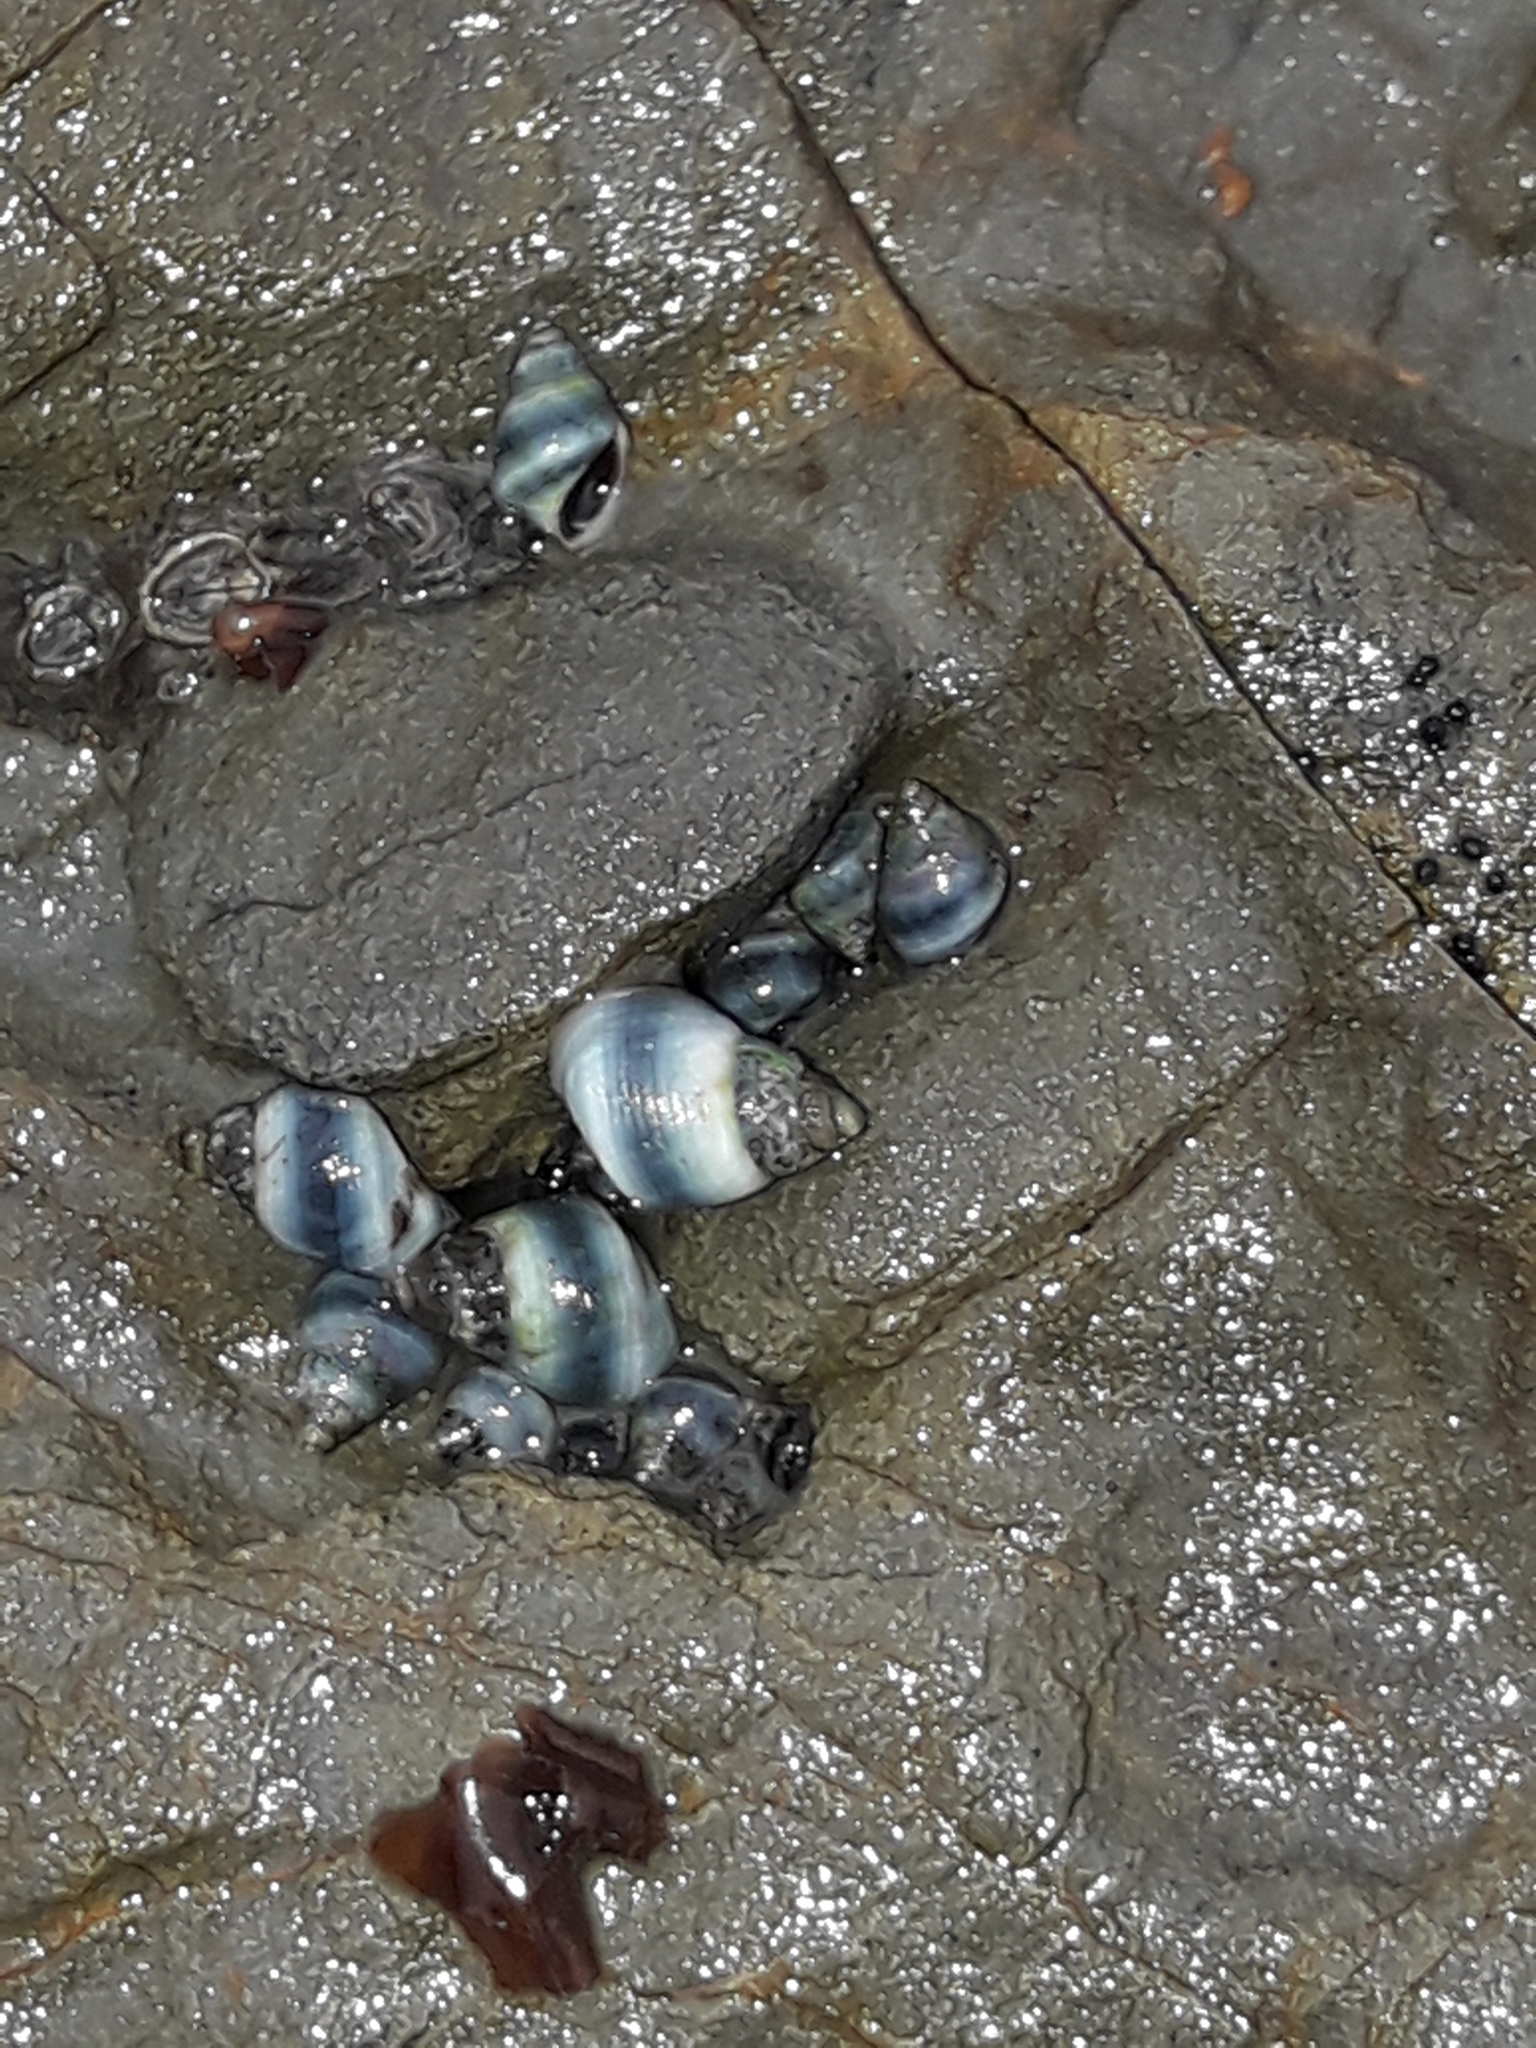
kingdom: Animalia
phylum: Mollusca
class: Gastropoda
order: Littorinimorpha
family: Littorinidae
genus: Austrolittorina
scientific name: Austrolittorina antipodum
